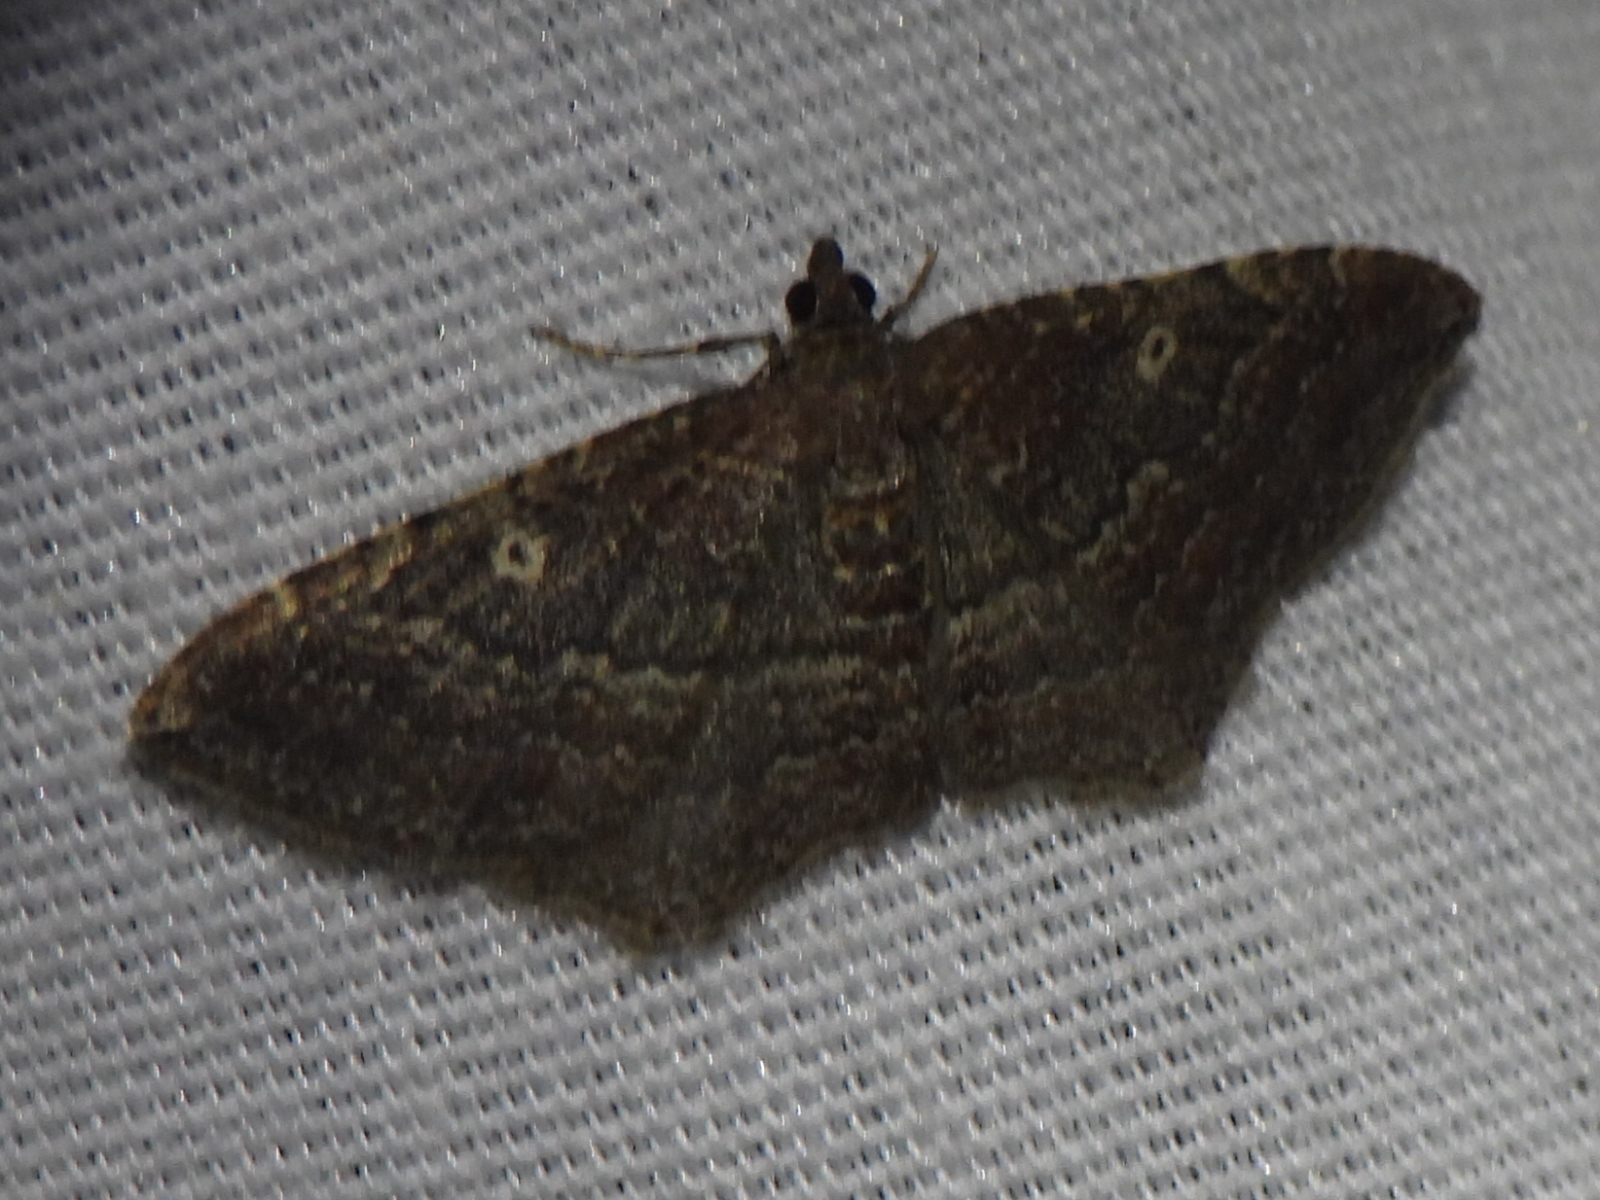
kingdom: Animalia
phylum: Arthropoda
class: Insecta
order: Lepidoptera
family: Geometridae
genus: Orthonama
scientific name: Orthonama obstipata
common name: The gem
